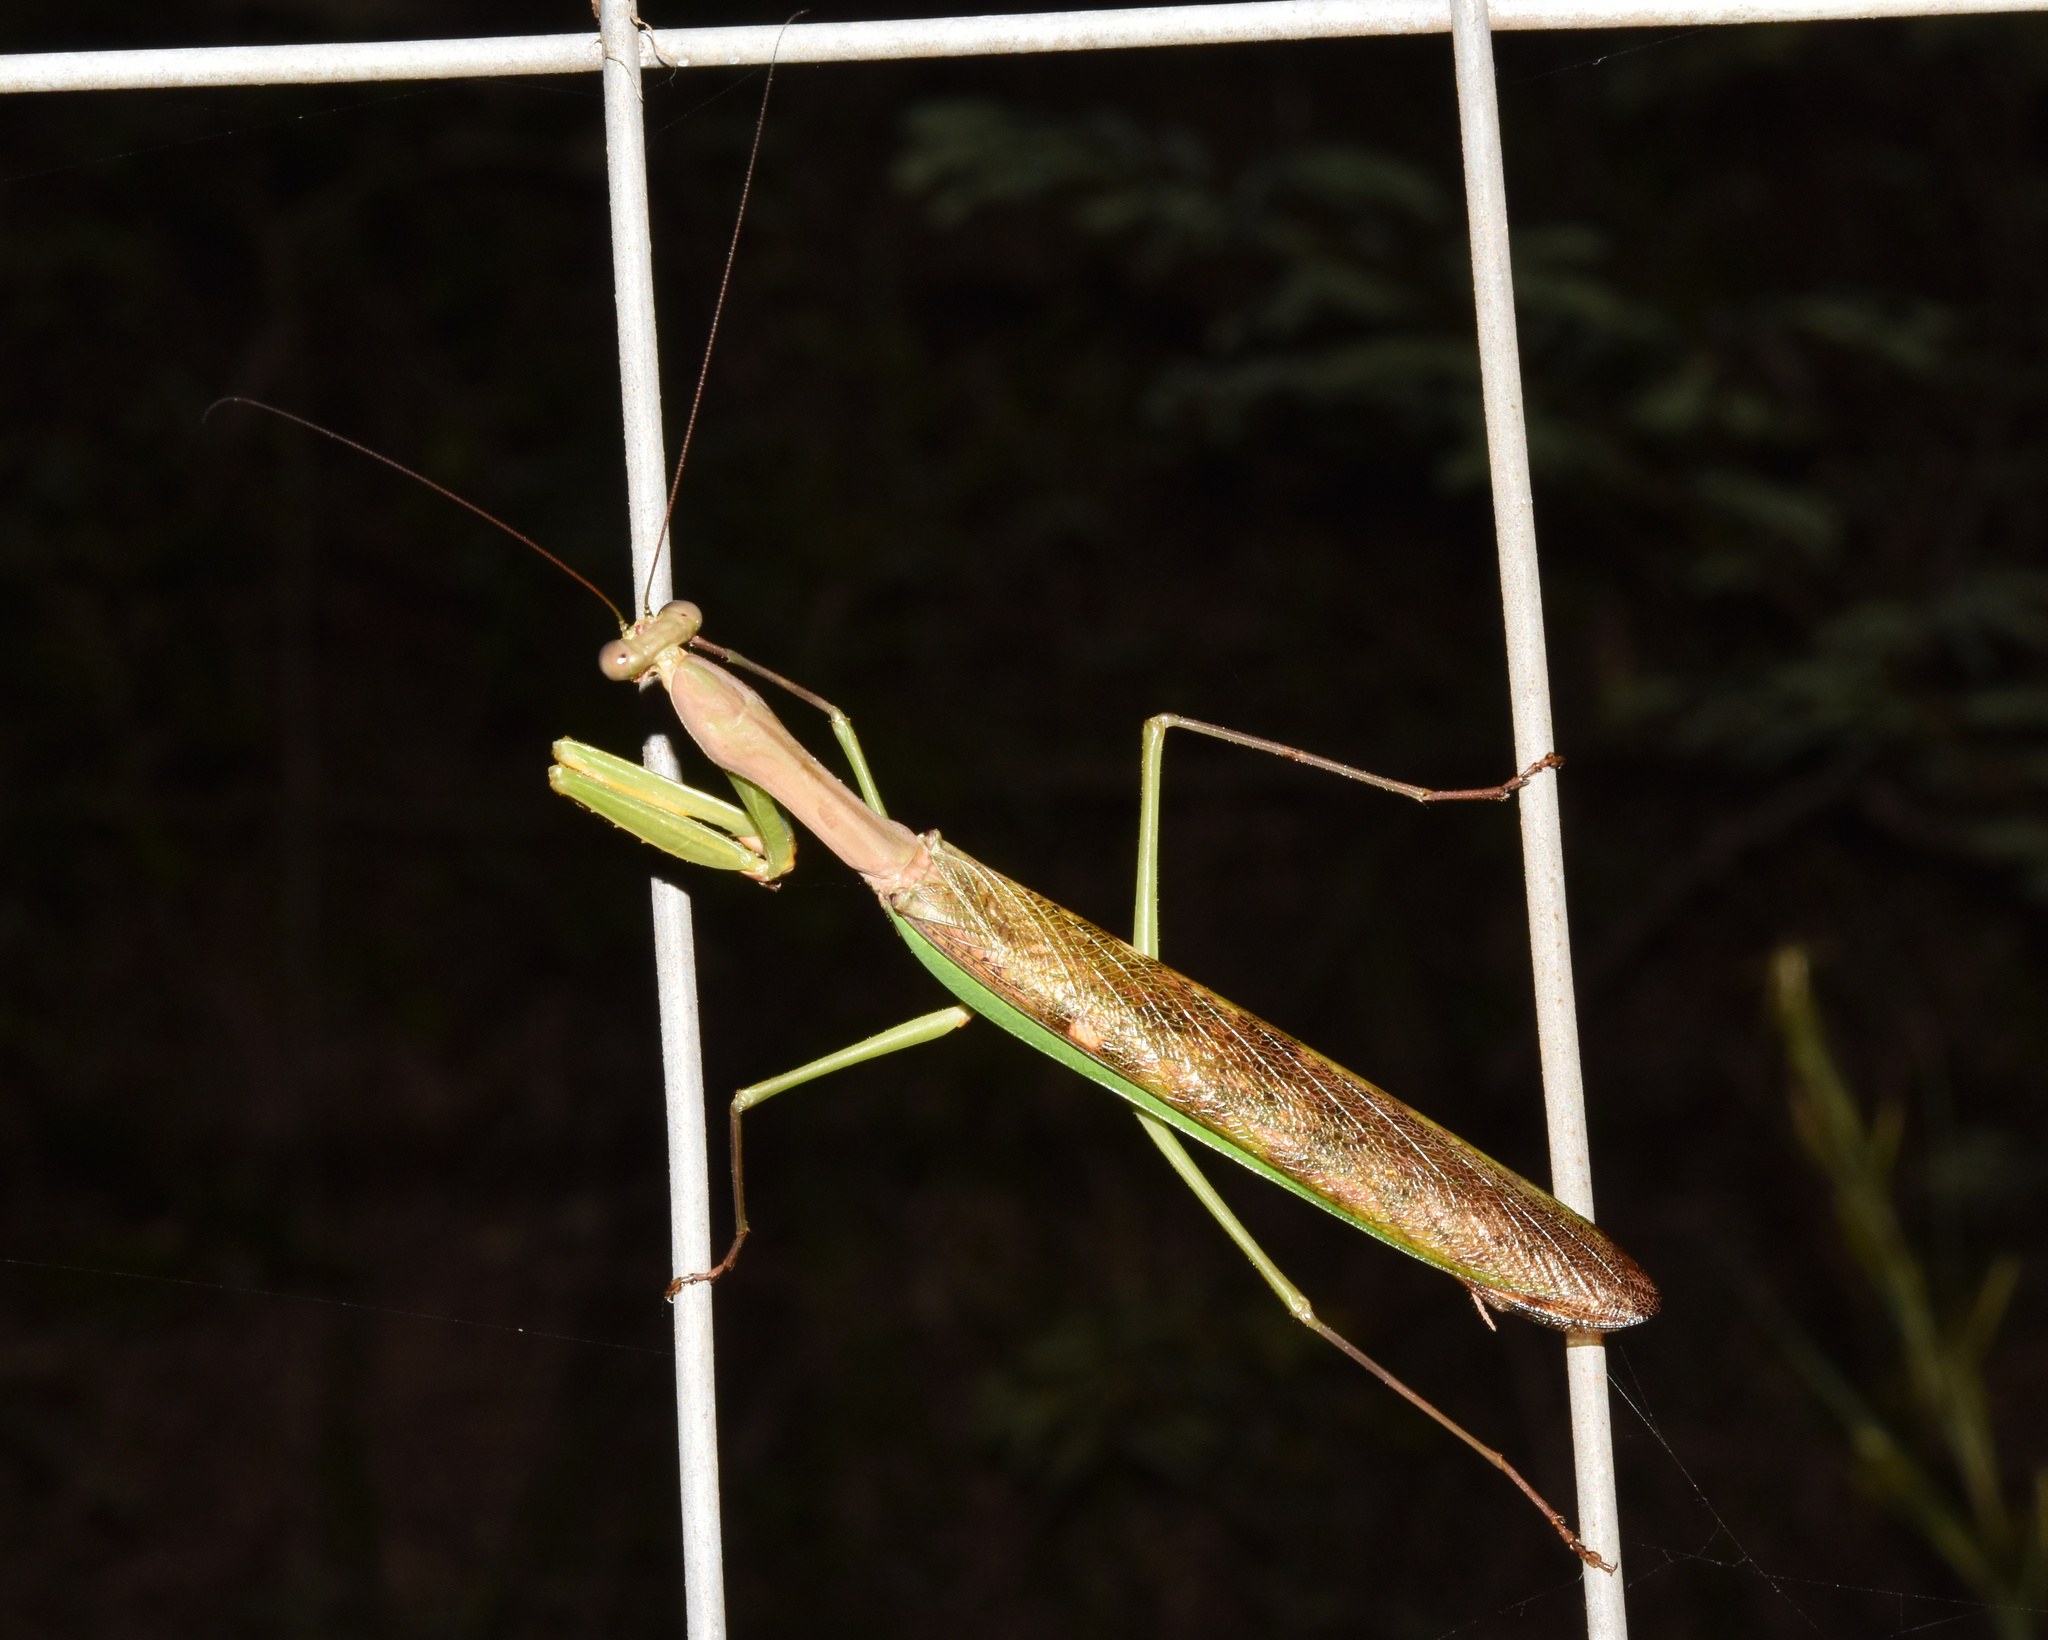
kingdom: Animalia
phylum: Arthropoda
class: Insecta
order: Mantodea
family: Mantidae
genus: Polyspilota
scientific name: Polyspilota aeruginosa
